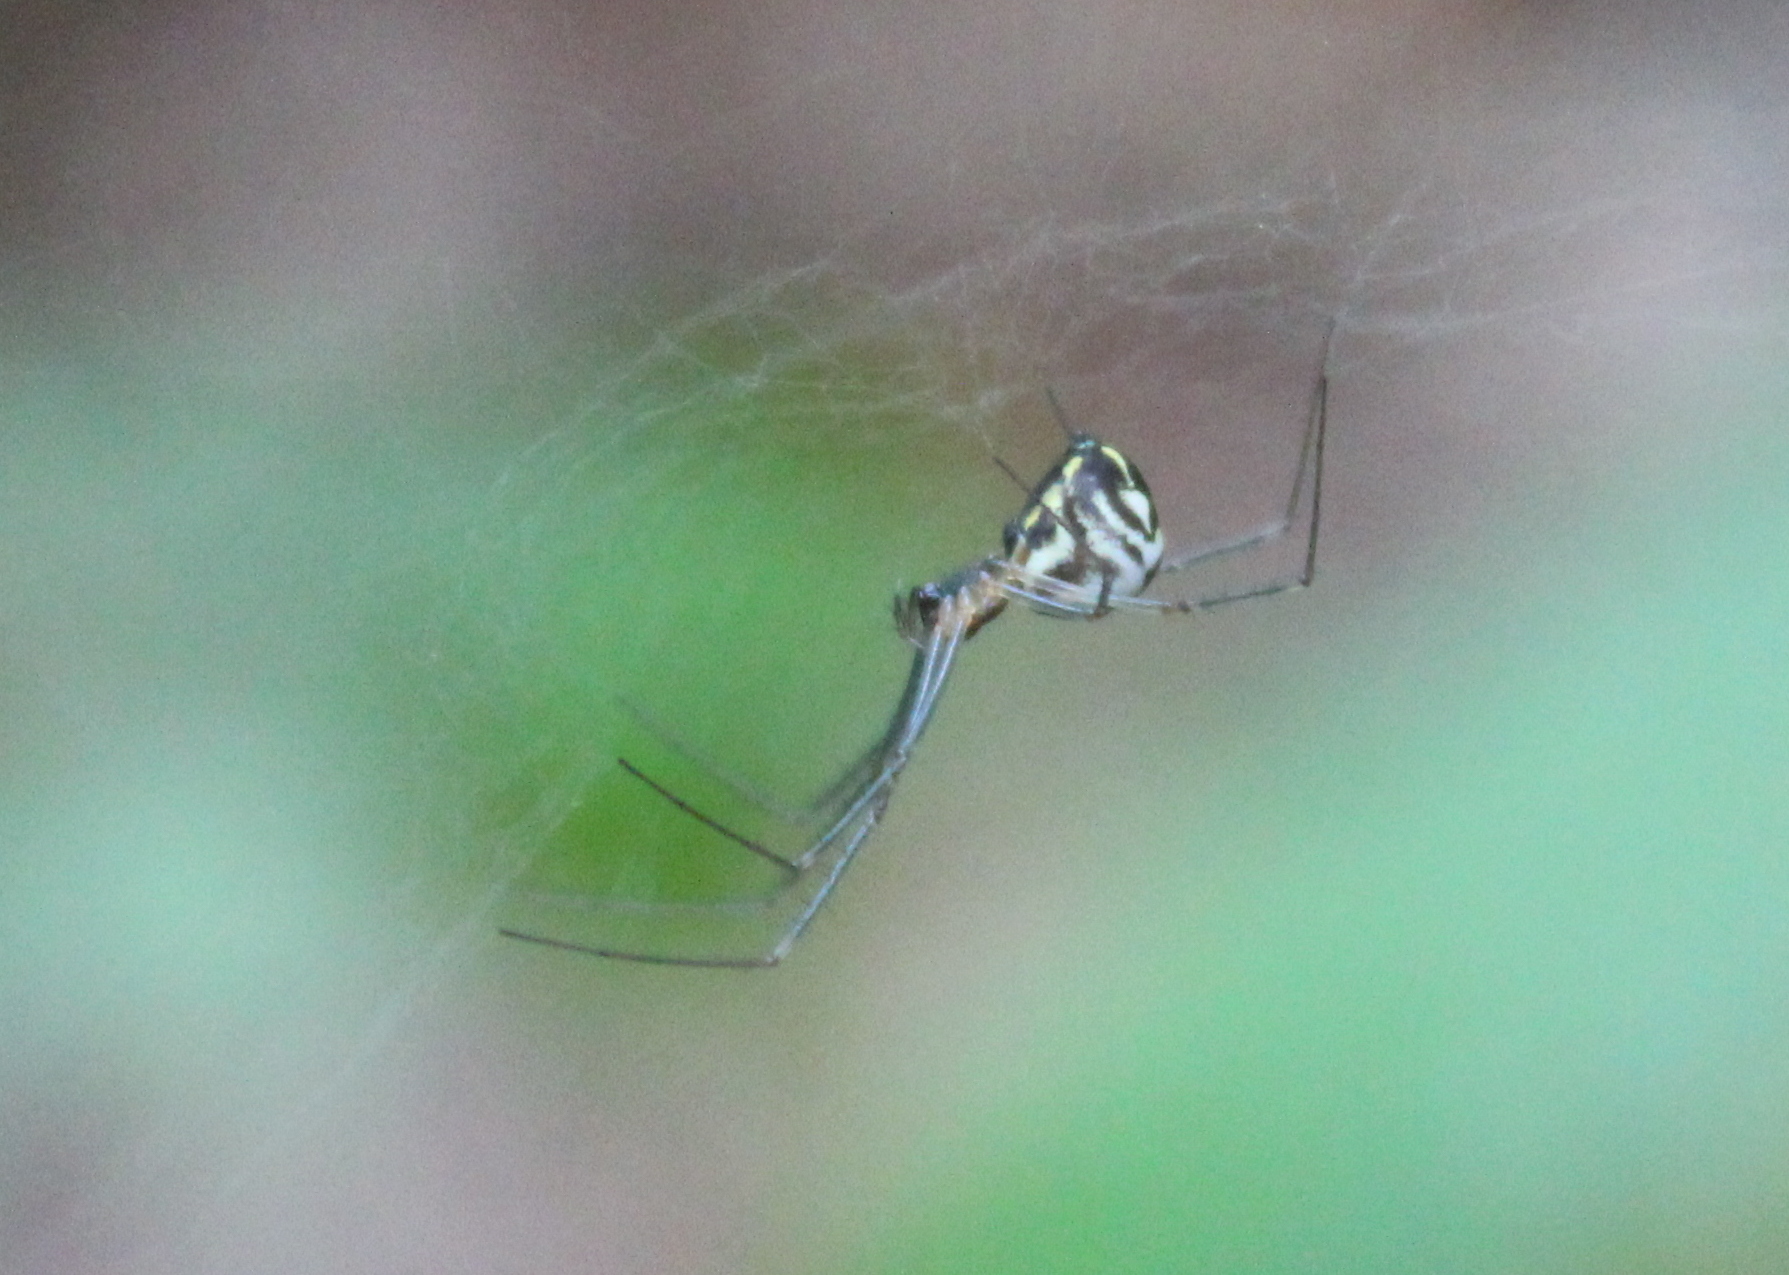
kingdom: Animalia
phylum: Arthropoda
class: Arachnida
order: Araneae
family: Linyphiidae
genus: Neriene
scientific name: Neriene radiata
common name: Filmy dome spider
